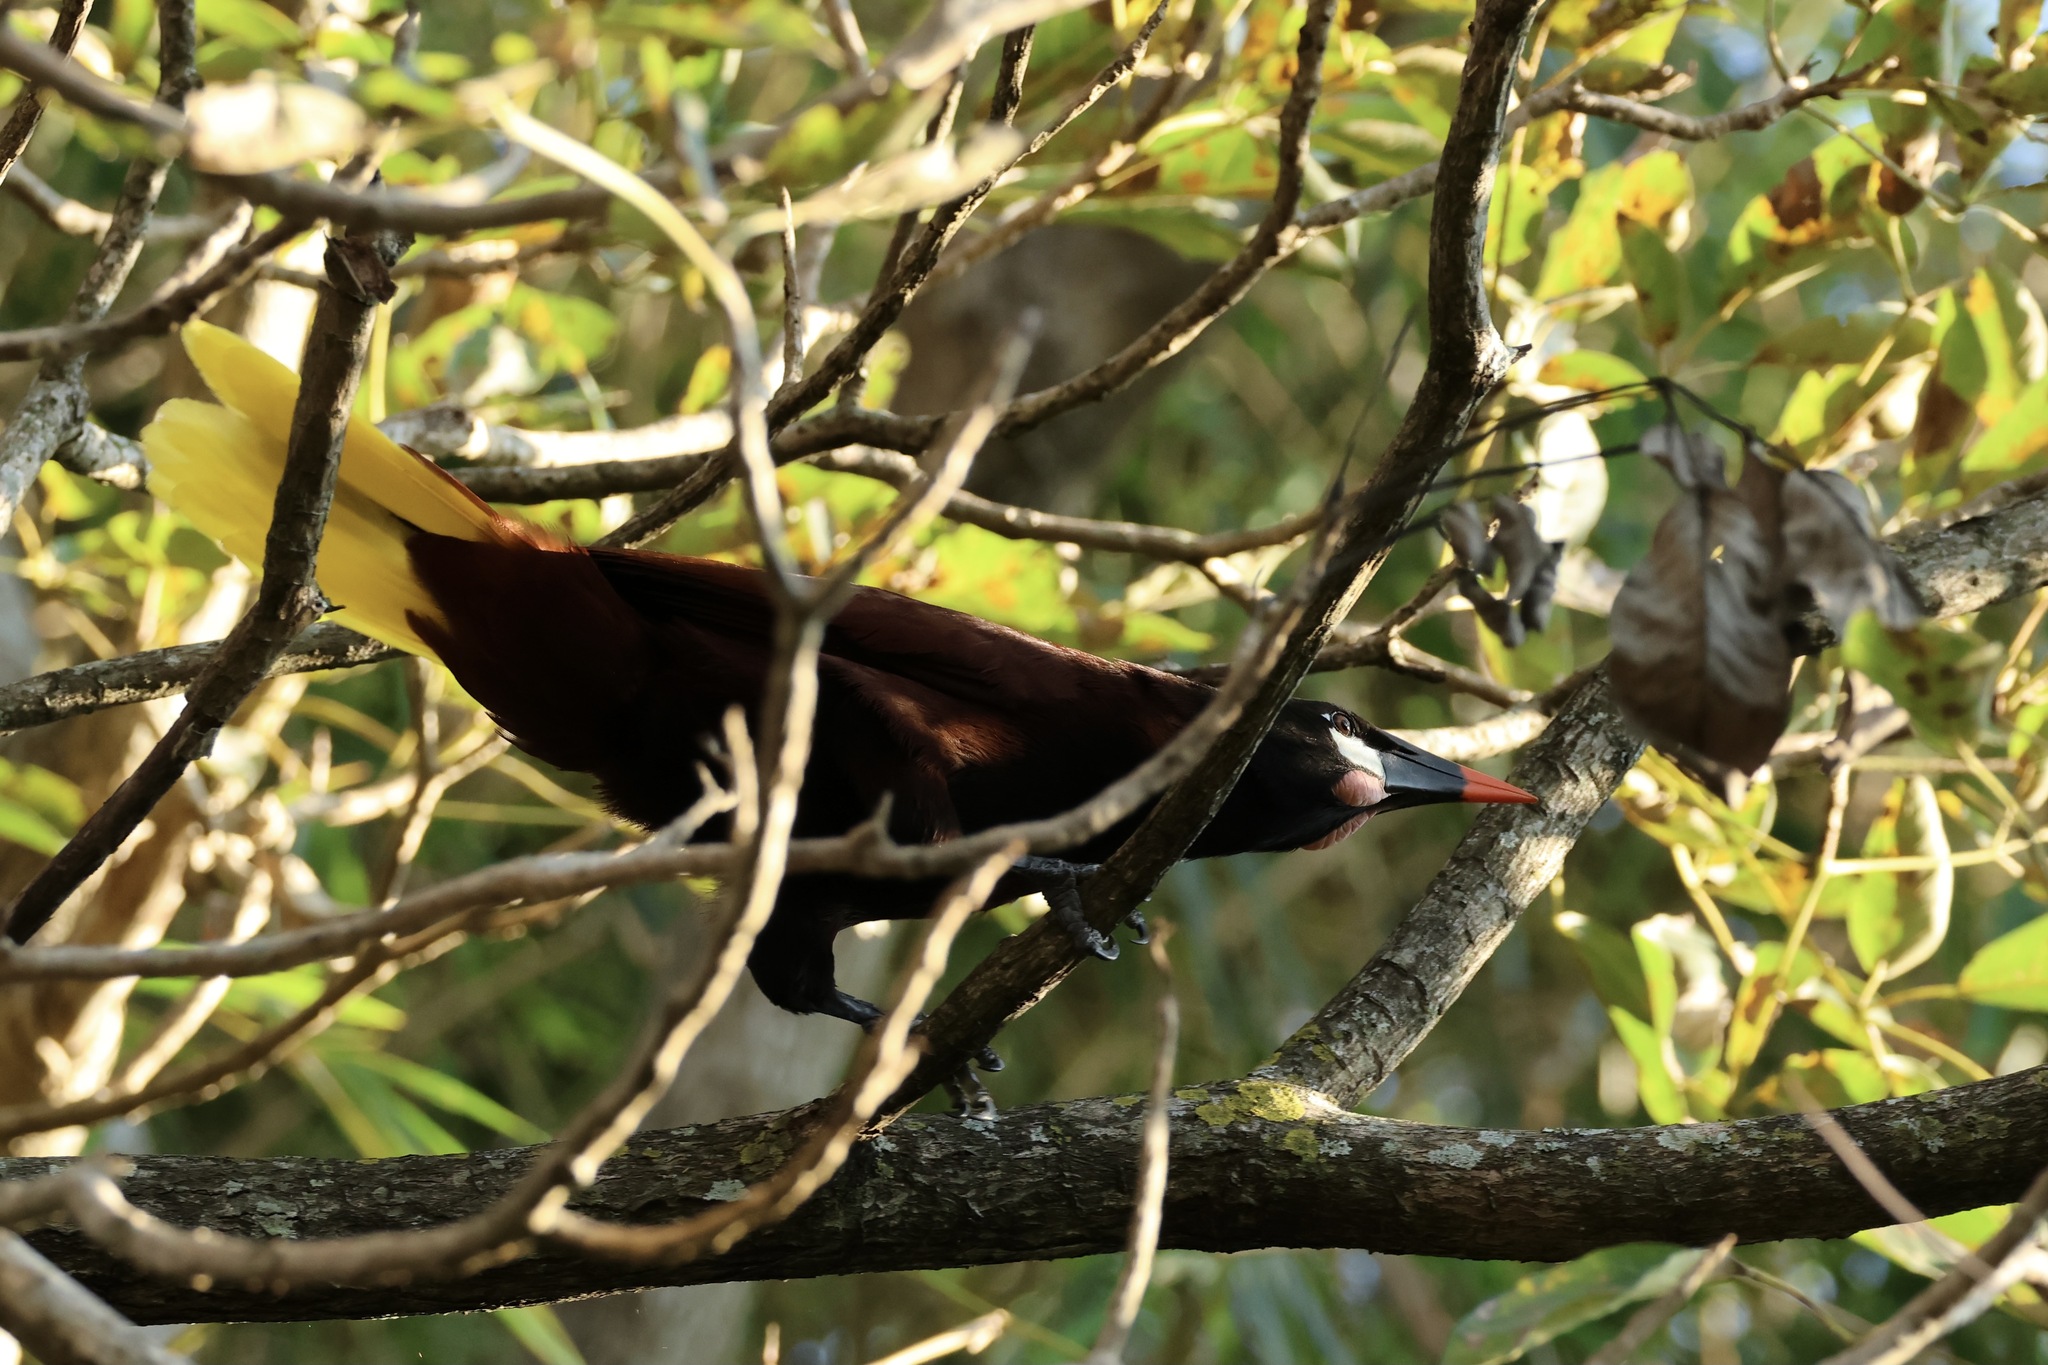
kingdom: Animalia
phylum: Chordata
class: Aves
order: Passeriformes
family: Icteridae
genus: Psarocolius
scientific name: Psarocolius montezuma
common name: Montezuma oropendola
